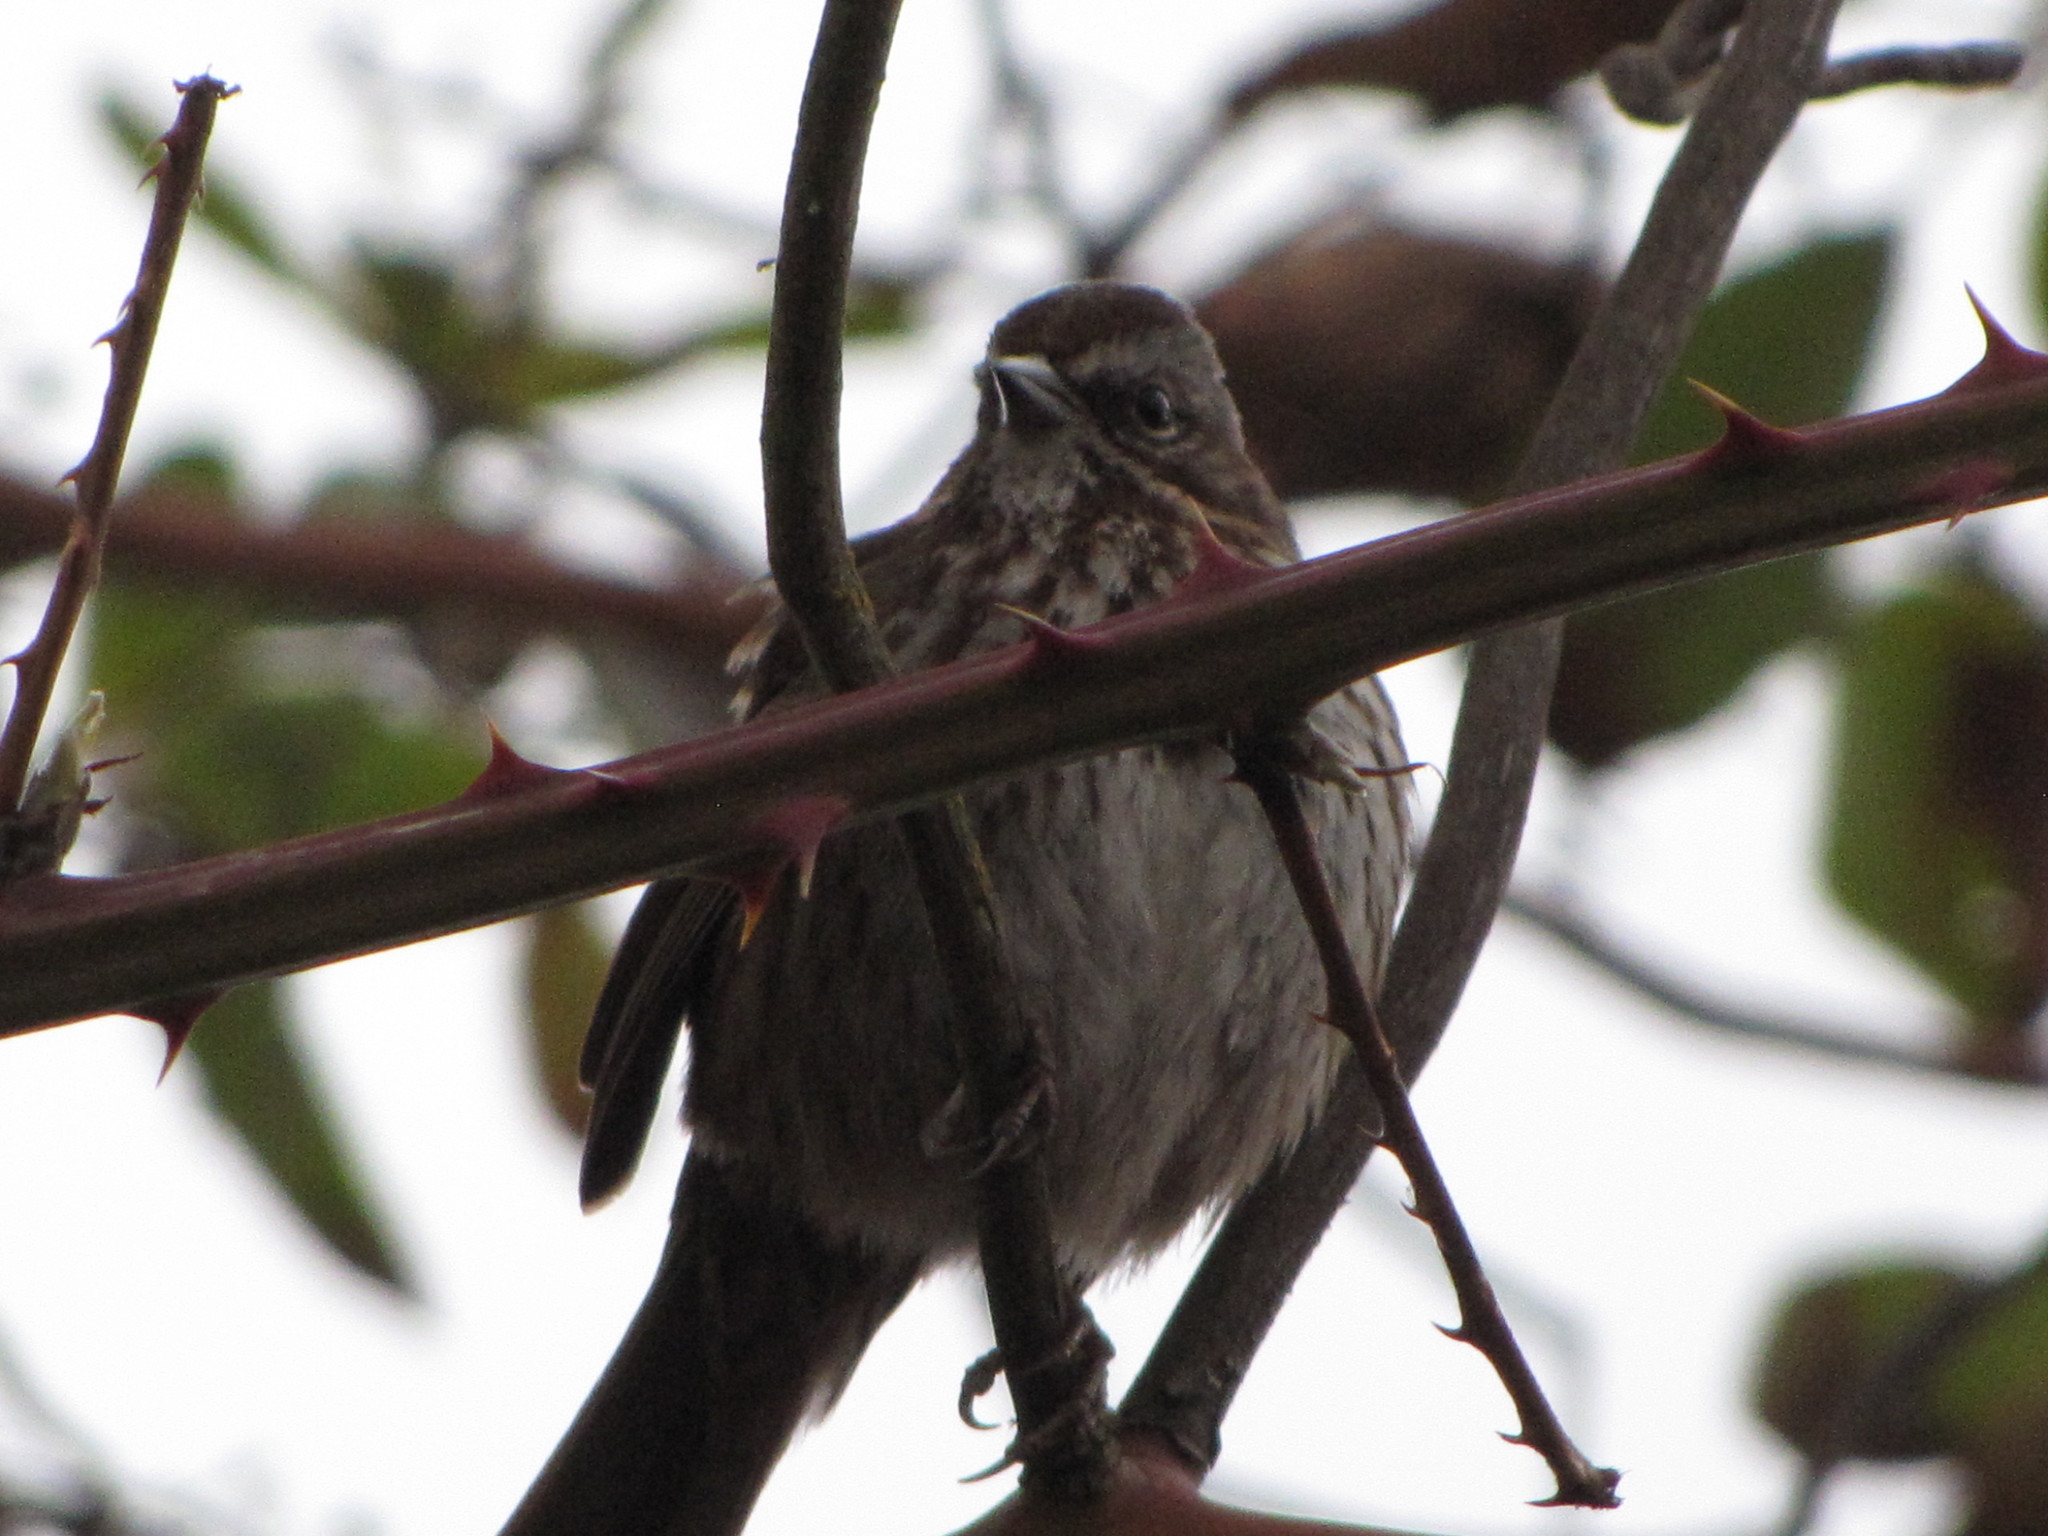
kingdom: Animalia
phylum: Chordata
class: Aves
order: Passeriformes
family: Passerellidae
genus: Melospiza
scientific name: Melospiza melodia
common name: Song sparrow
